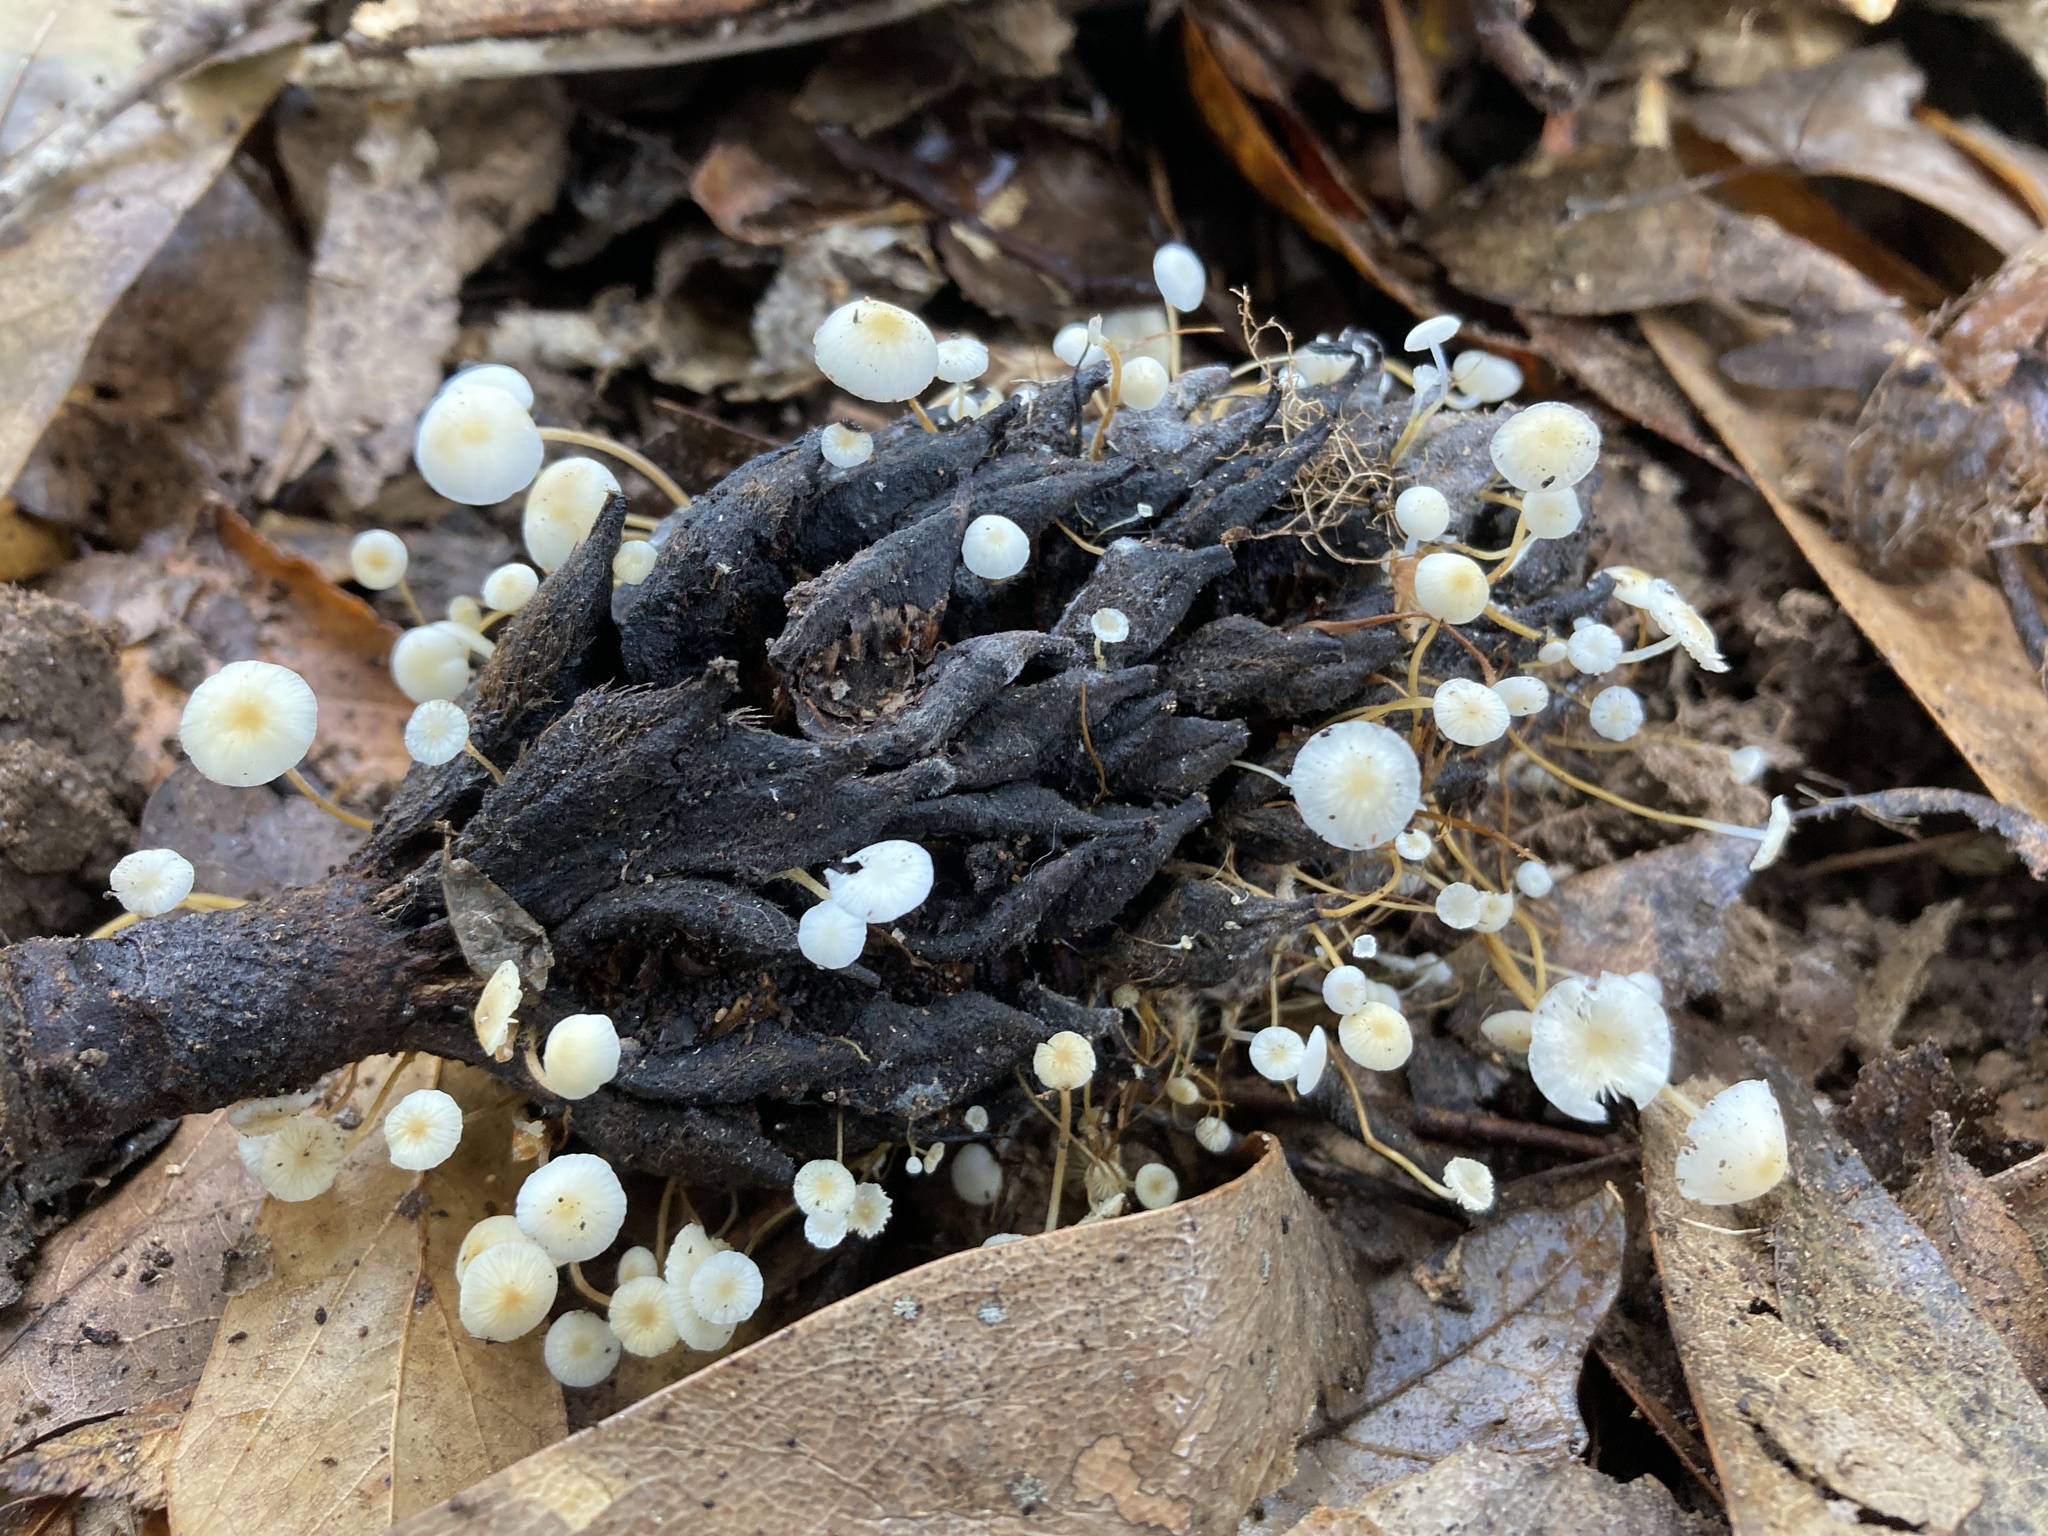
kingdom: Fungi
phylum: Basidiomycota
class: Agaricomycetes
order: Agaricales
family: Physalacriaceae
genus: Strobilurus
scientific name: Strobilurus conigenoides
